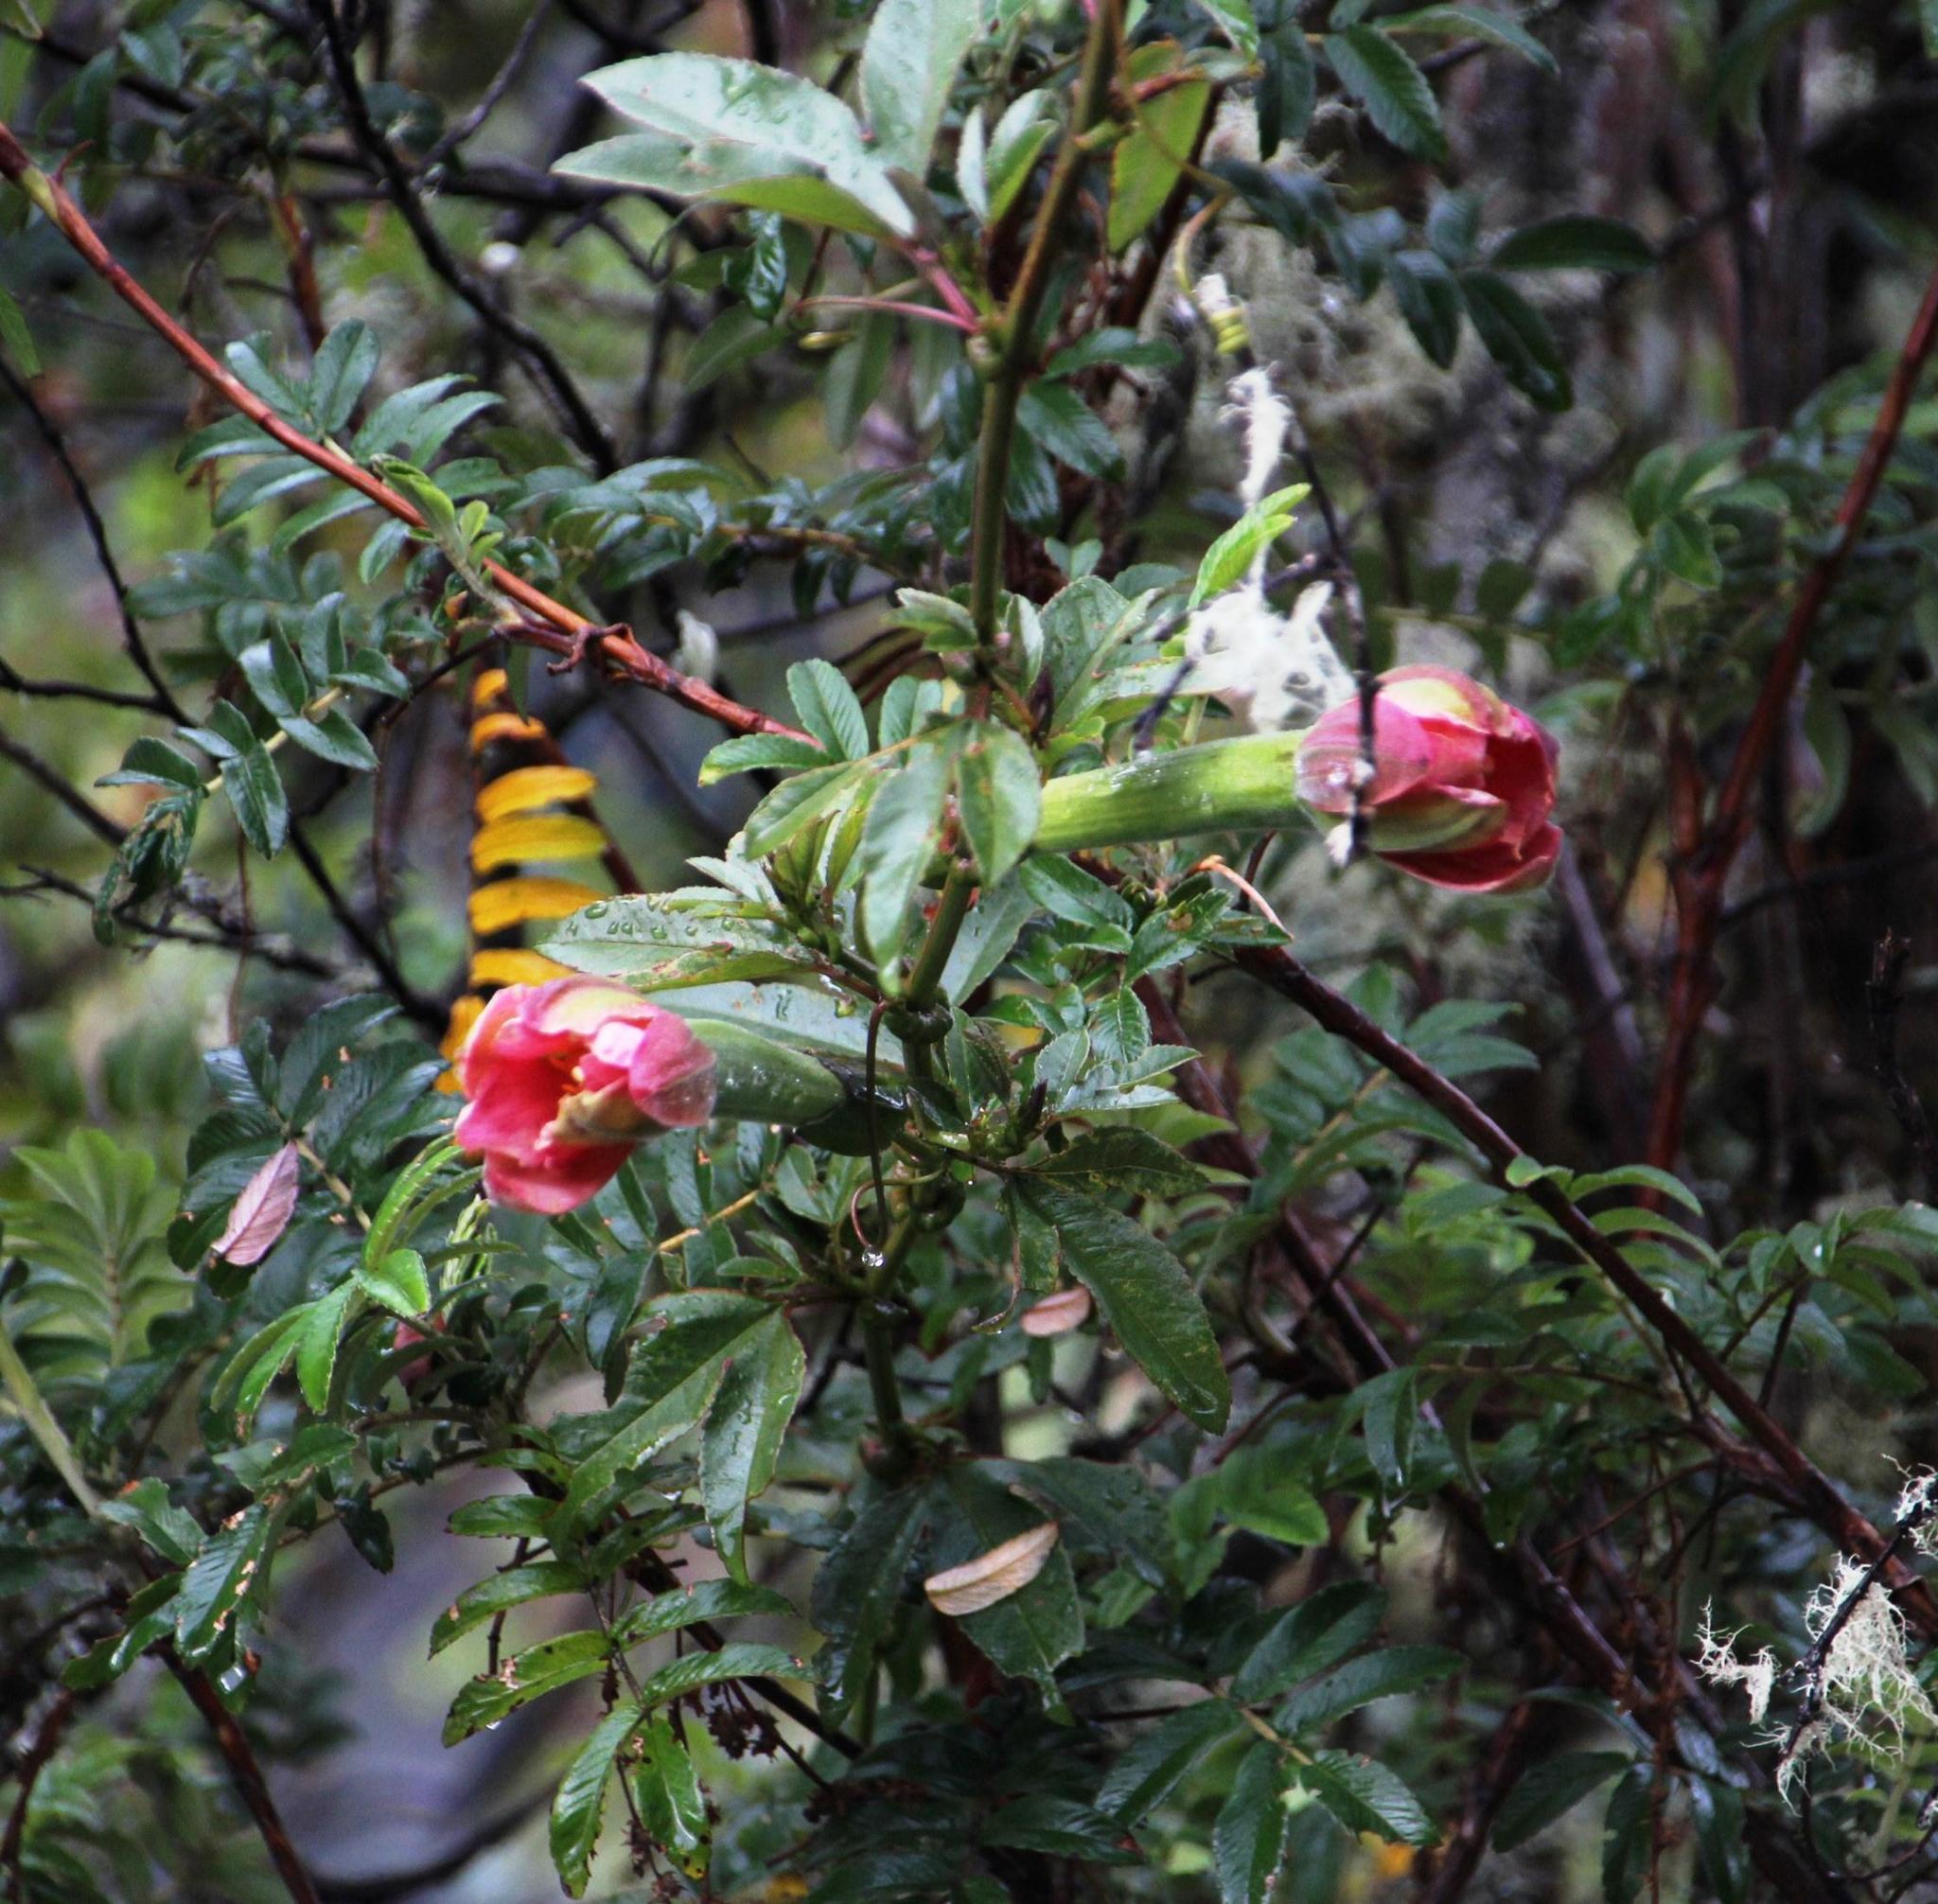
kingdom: Plantae
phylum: Tracheophyta
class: Magnoliopsida
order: Malpighiales
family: Passifloraceae
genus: Passiflora
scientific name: Passiflora mixta
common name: Passion flower
